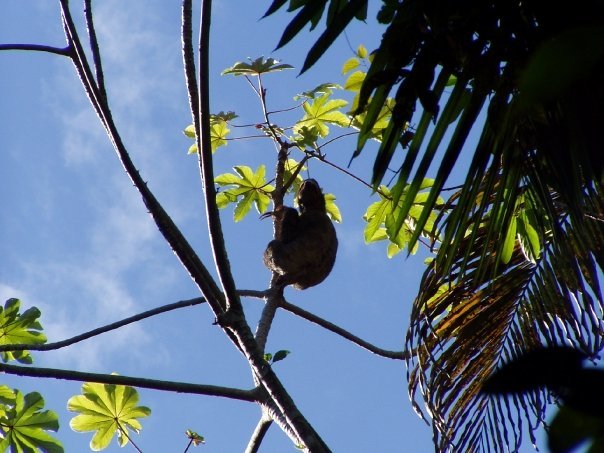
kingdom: Animalia
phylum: Chordata
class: Mammalia
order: Pilosa
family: Bradypodidae
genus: Bradypus
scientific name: Bradypus variegatus
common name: Brown-throated three-toed sloth
